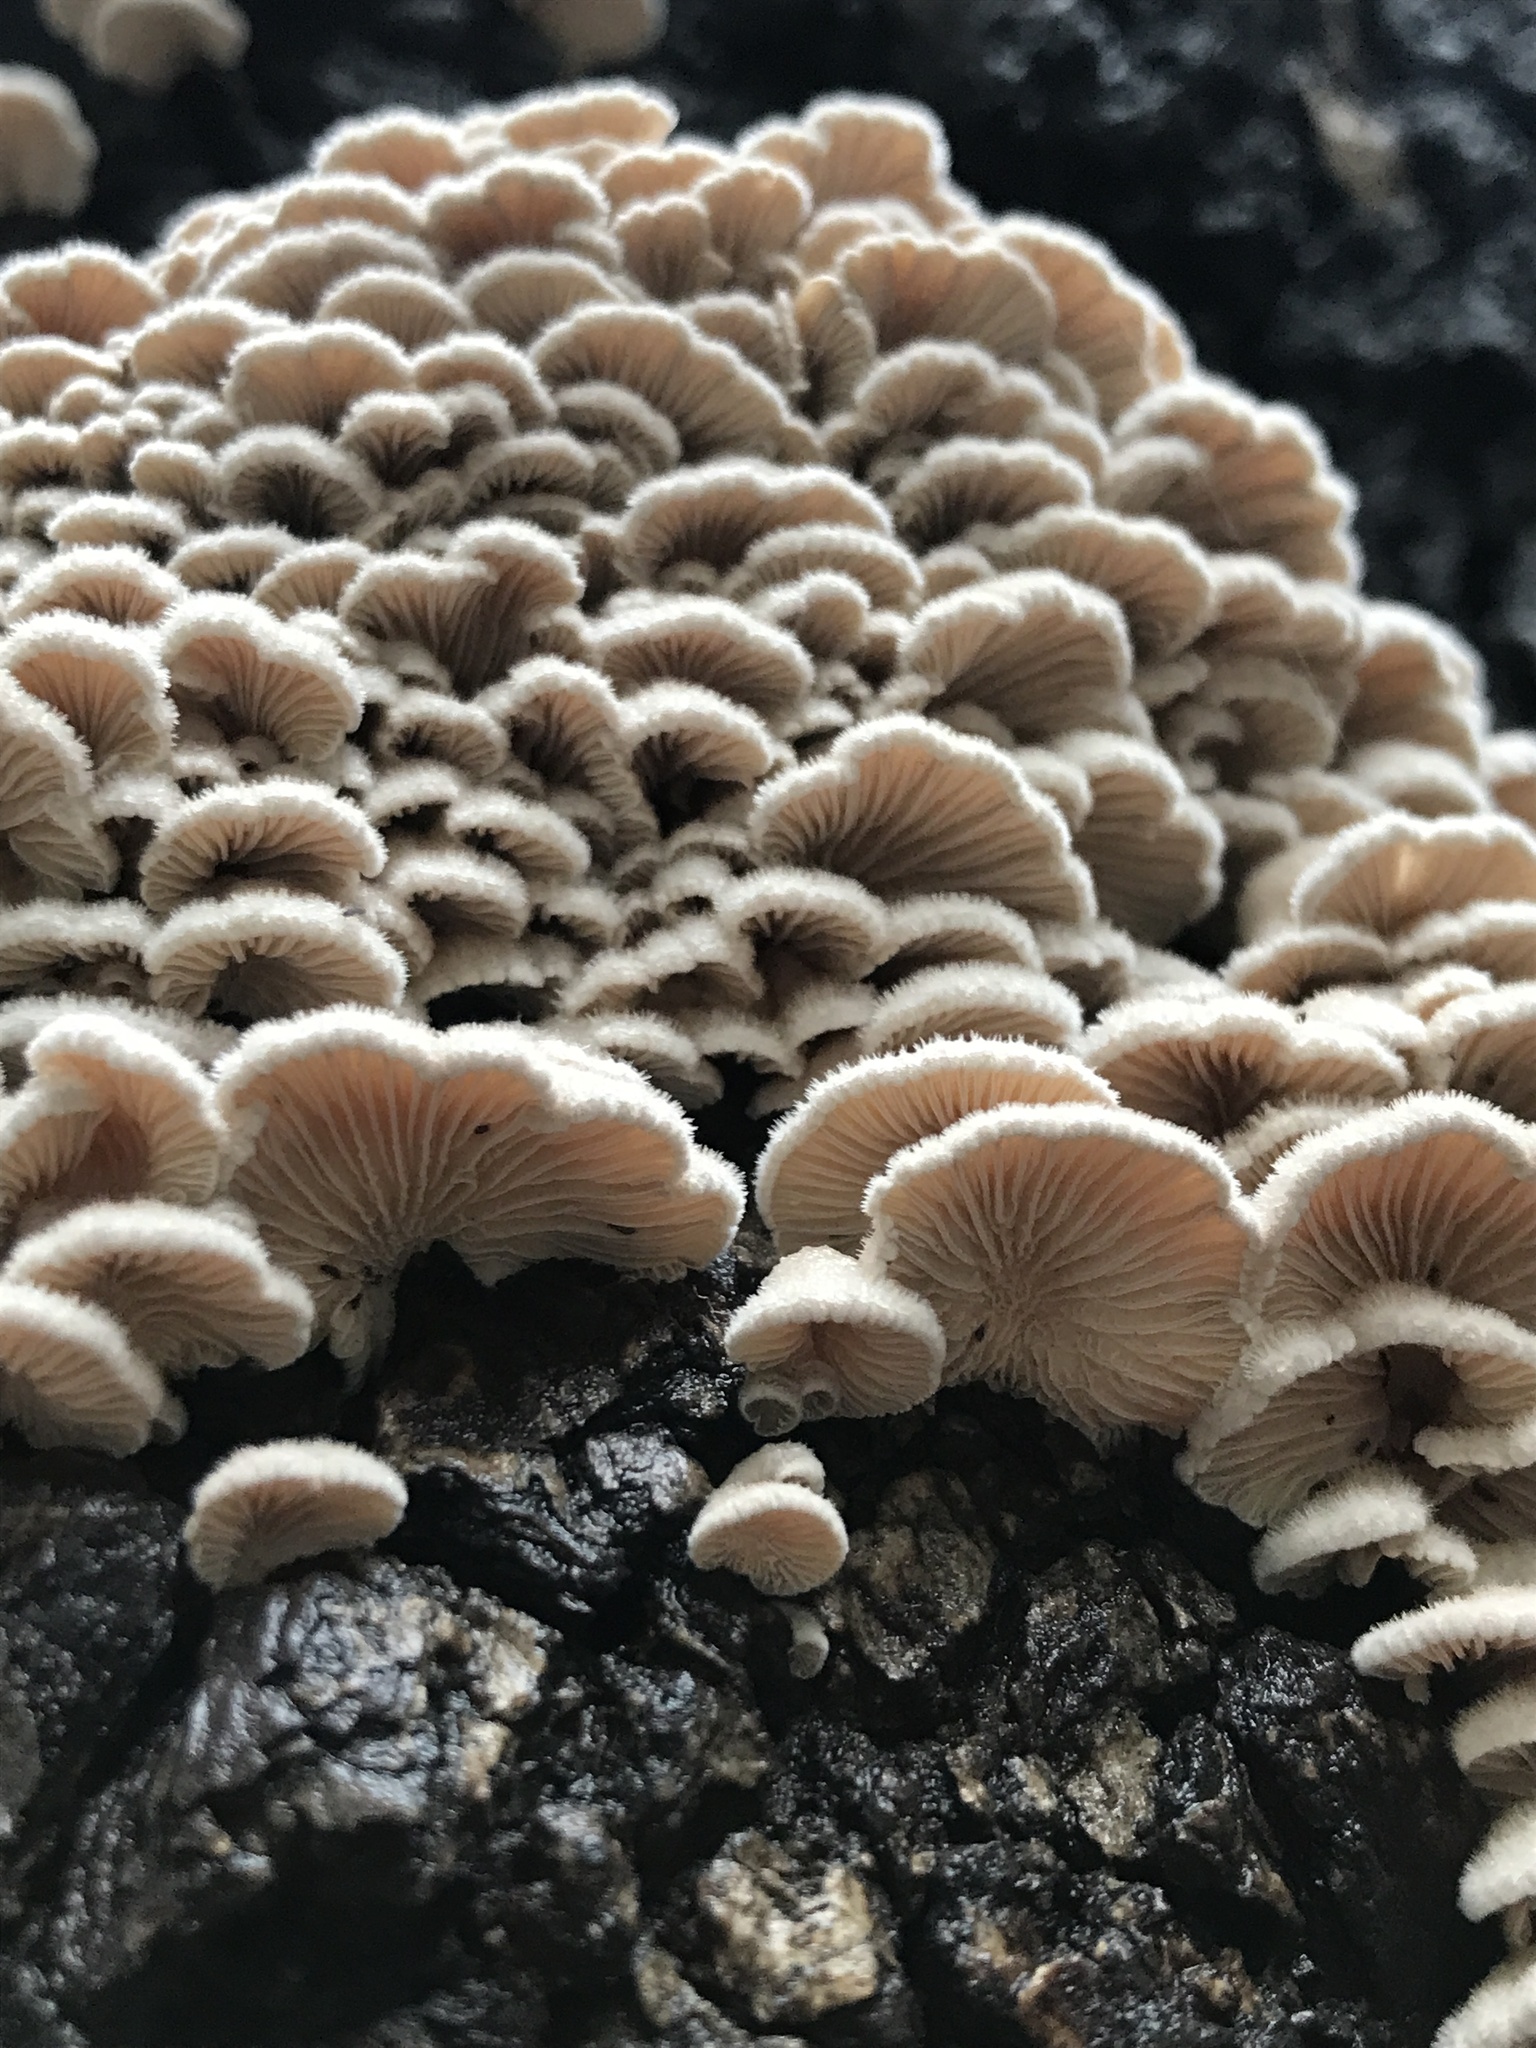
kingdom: Fungi
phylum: Basidiomycota
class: Agaricomycetes
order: Agaricales
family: Schizophyllaceae
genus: Schizophyllum
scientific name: Schizophyllum commune
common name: Common porecrust
